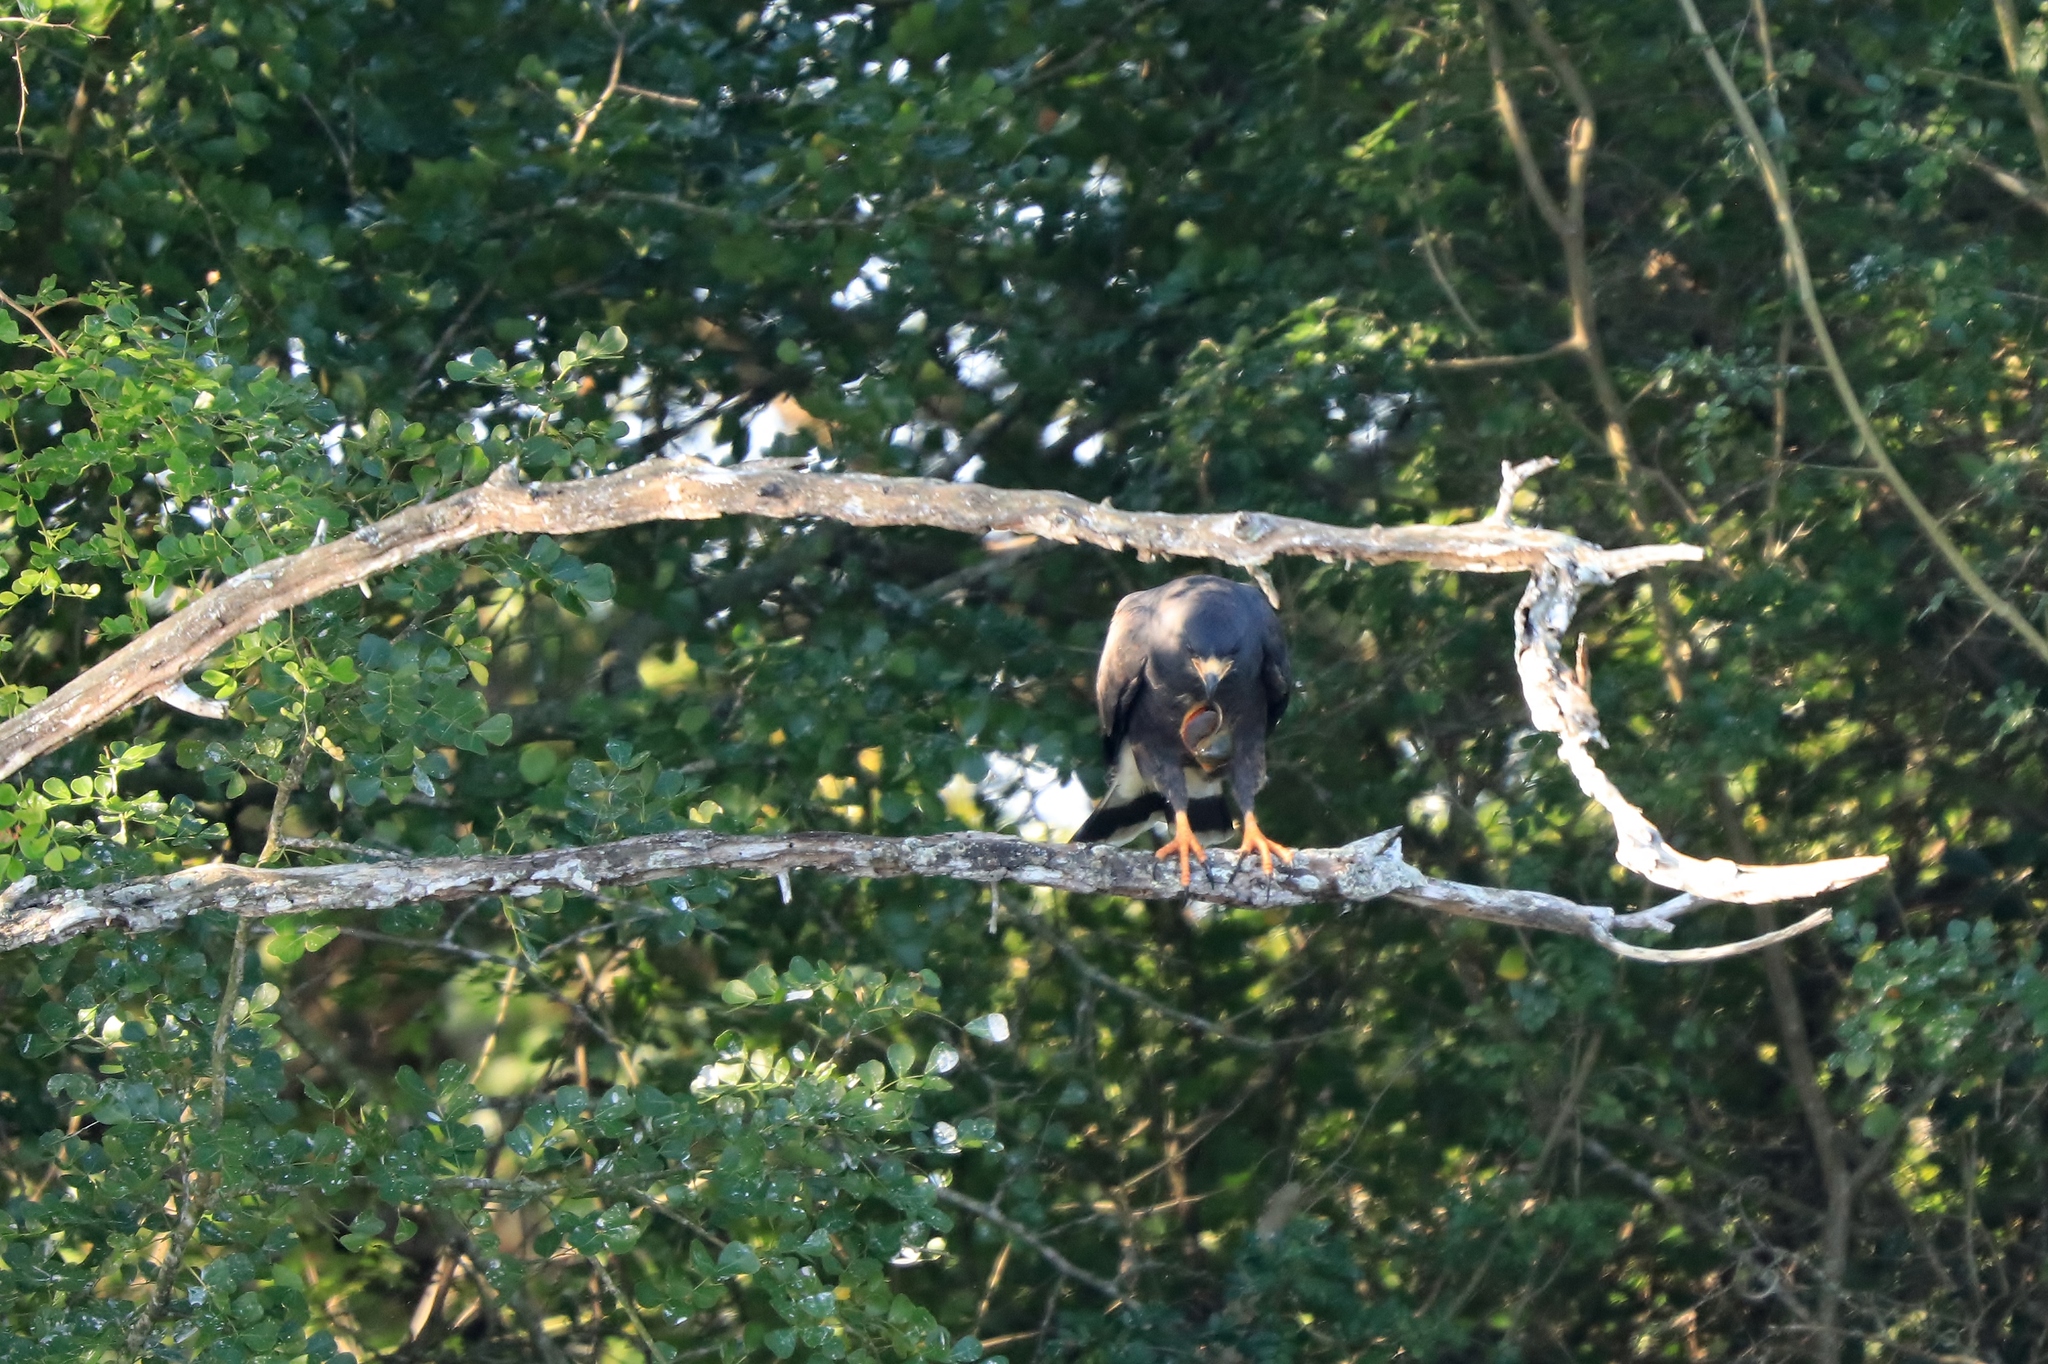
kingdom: Animalia
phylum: Chordata
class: Aves
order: Accipitriformes
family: Accipitridae
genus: Rostrhamus
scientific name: Rostrhamus sociabilis
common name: Snail kite
